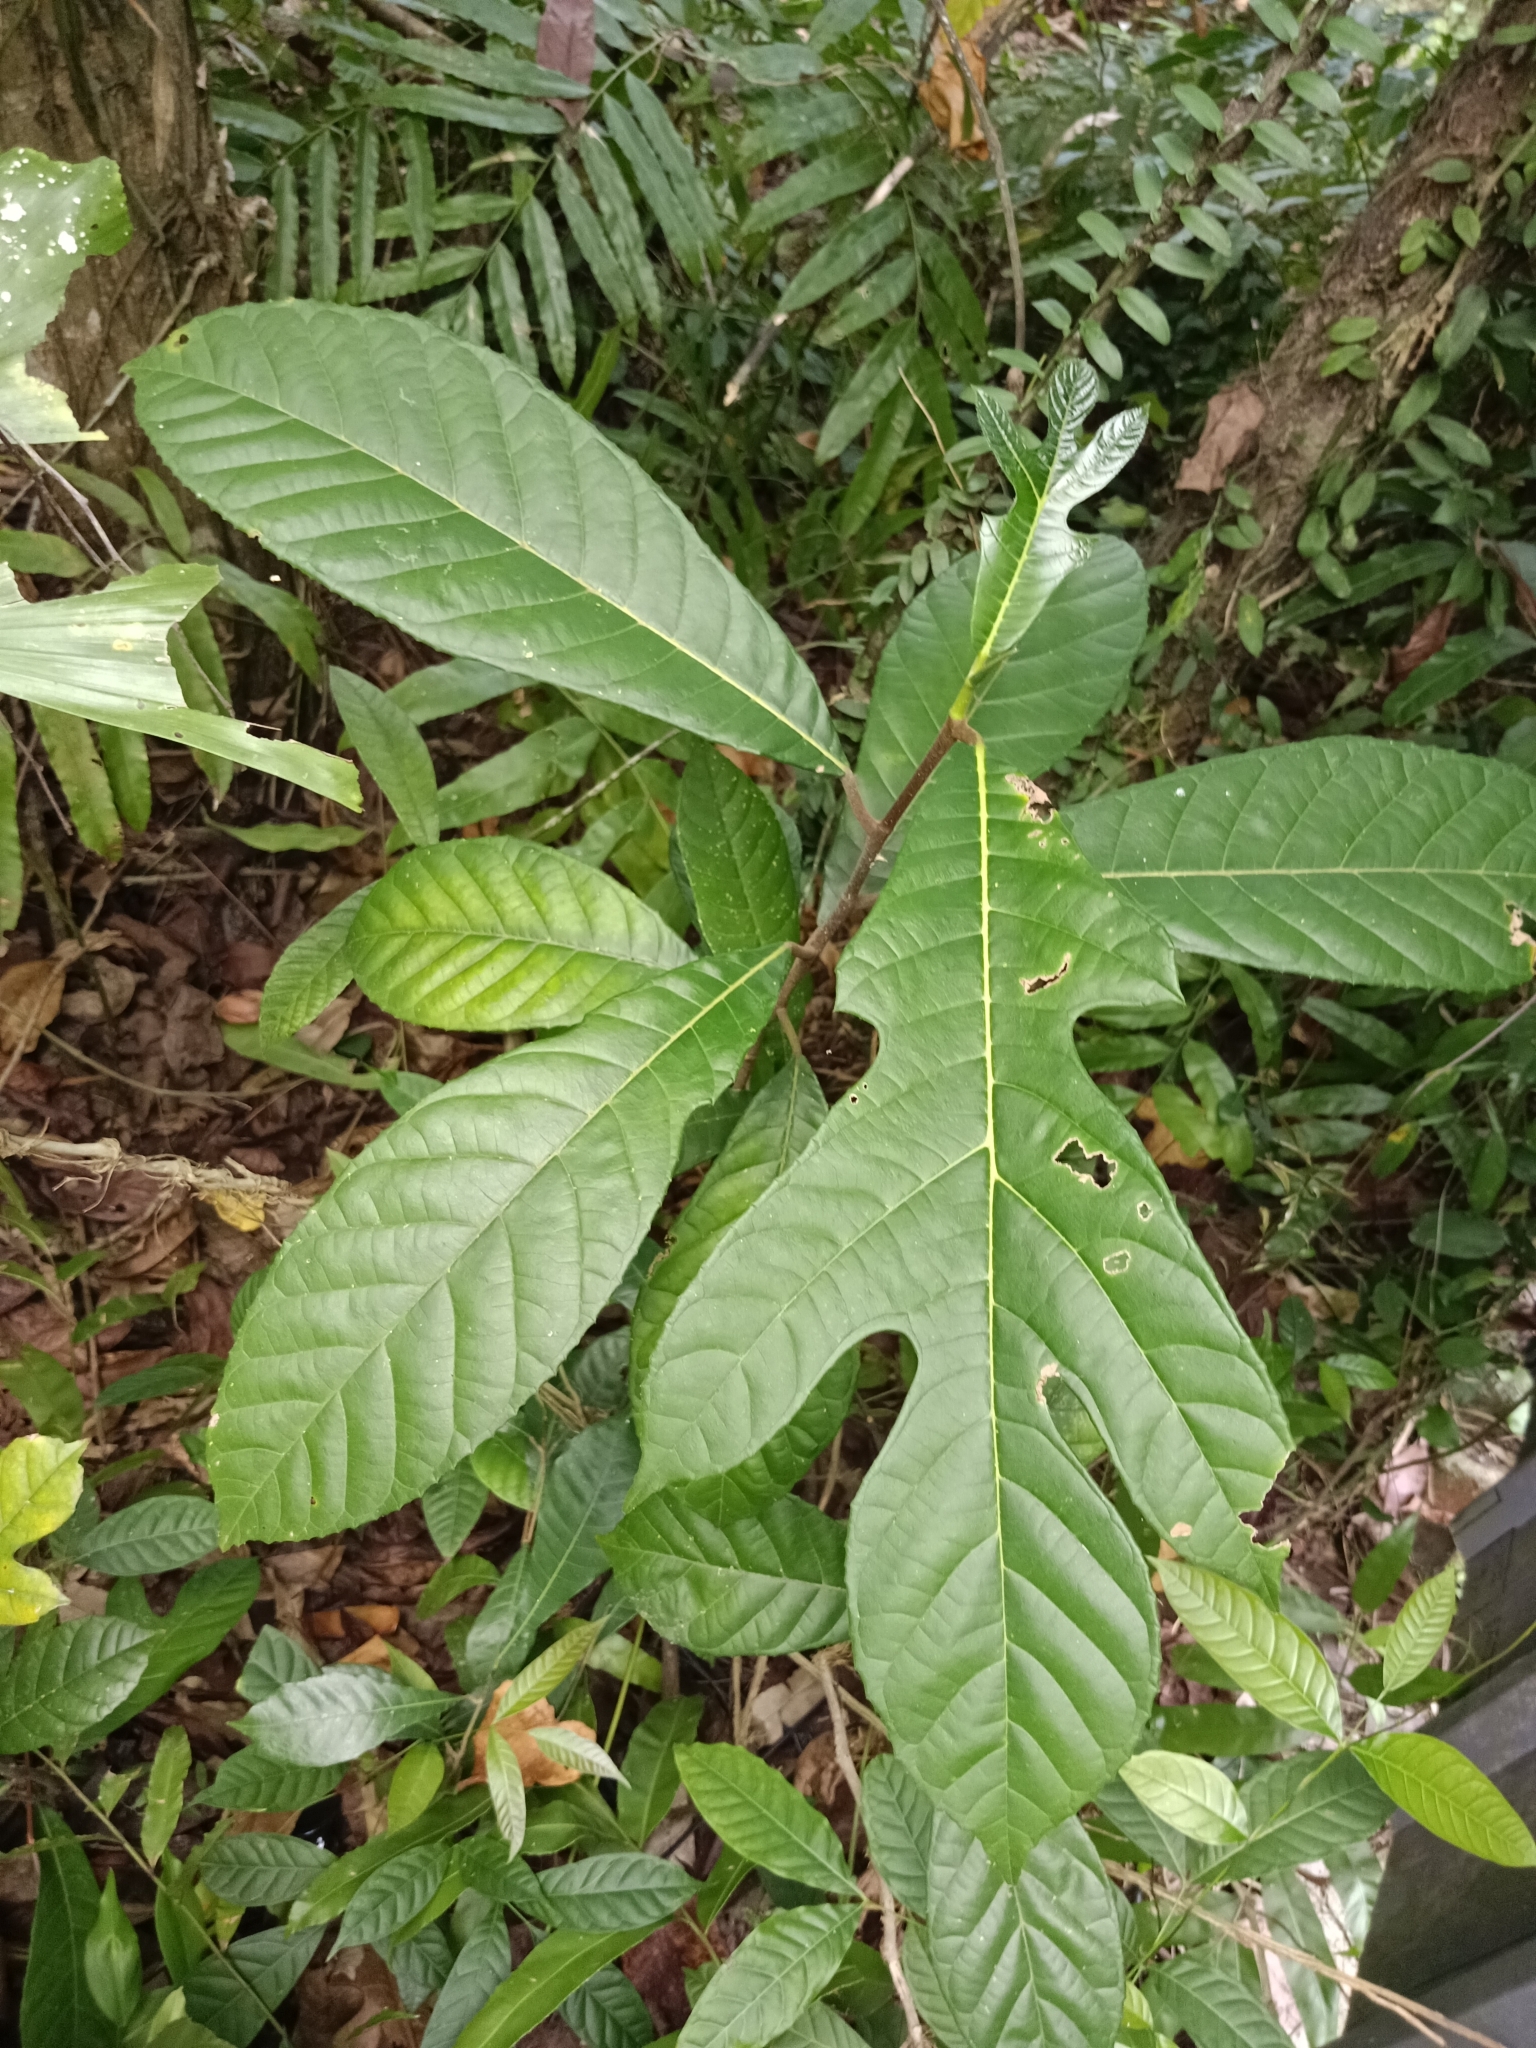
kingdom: Plantae
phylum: Tracheophyta
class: Magnoliopsida
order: Rosales
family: Moraceae
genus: Artocarpus
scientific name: Artocarpus hirsutus
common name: Hairy bread-fruit tree
